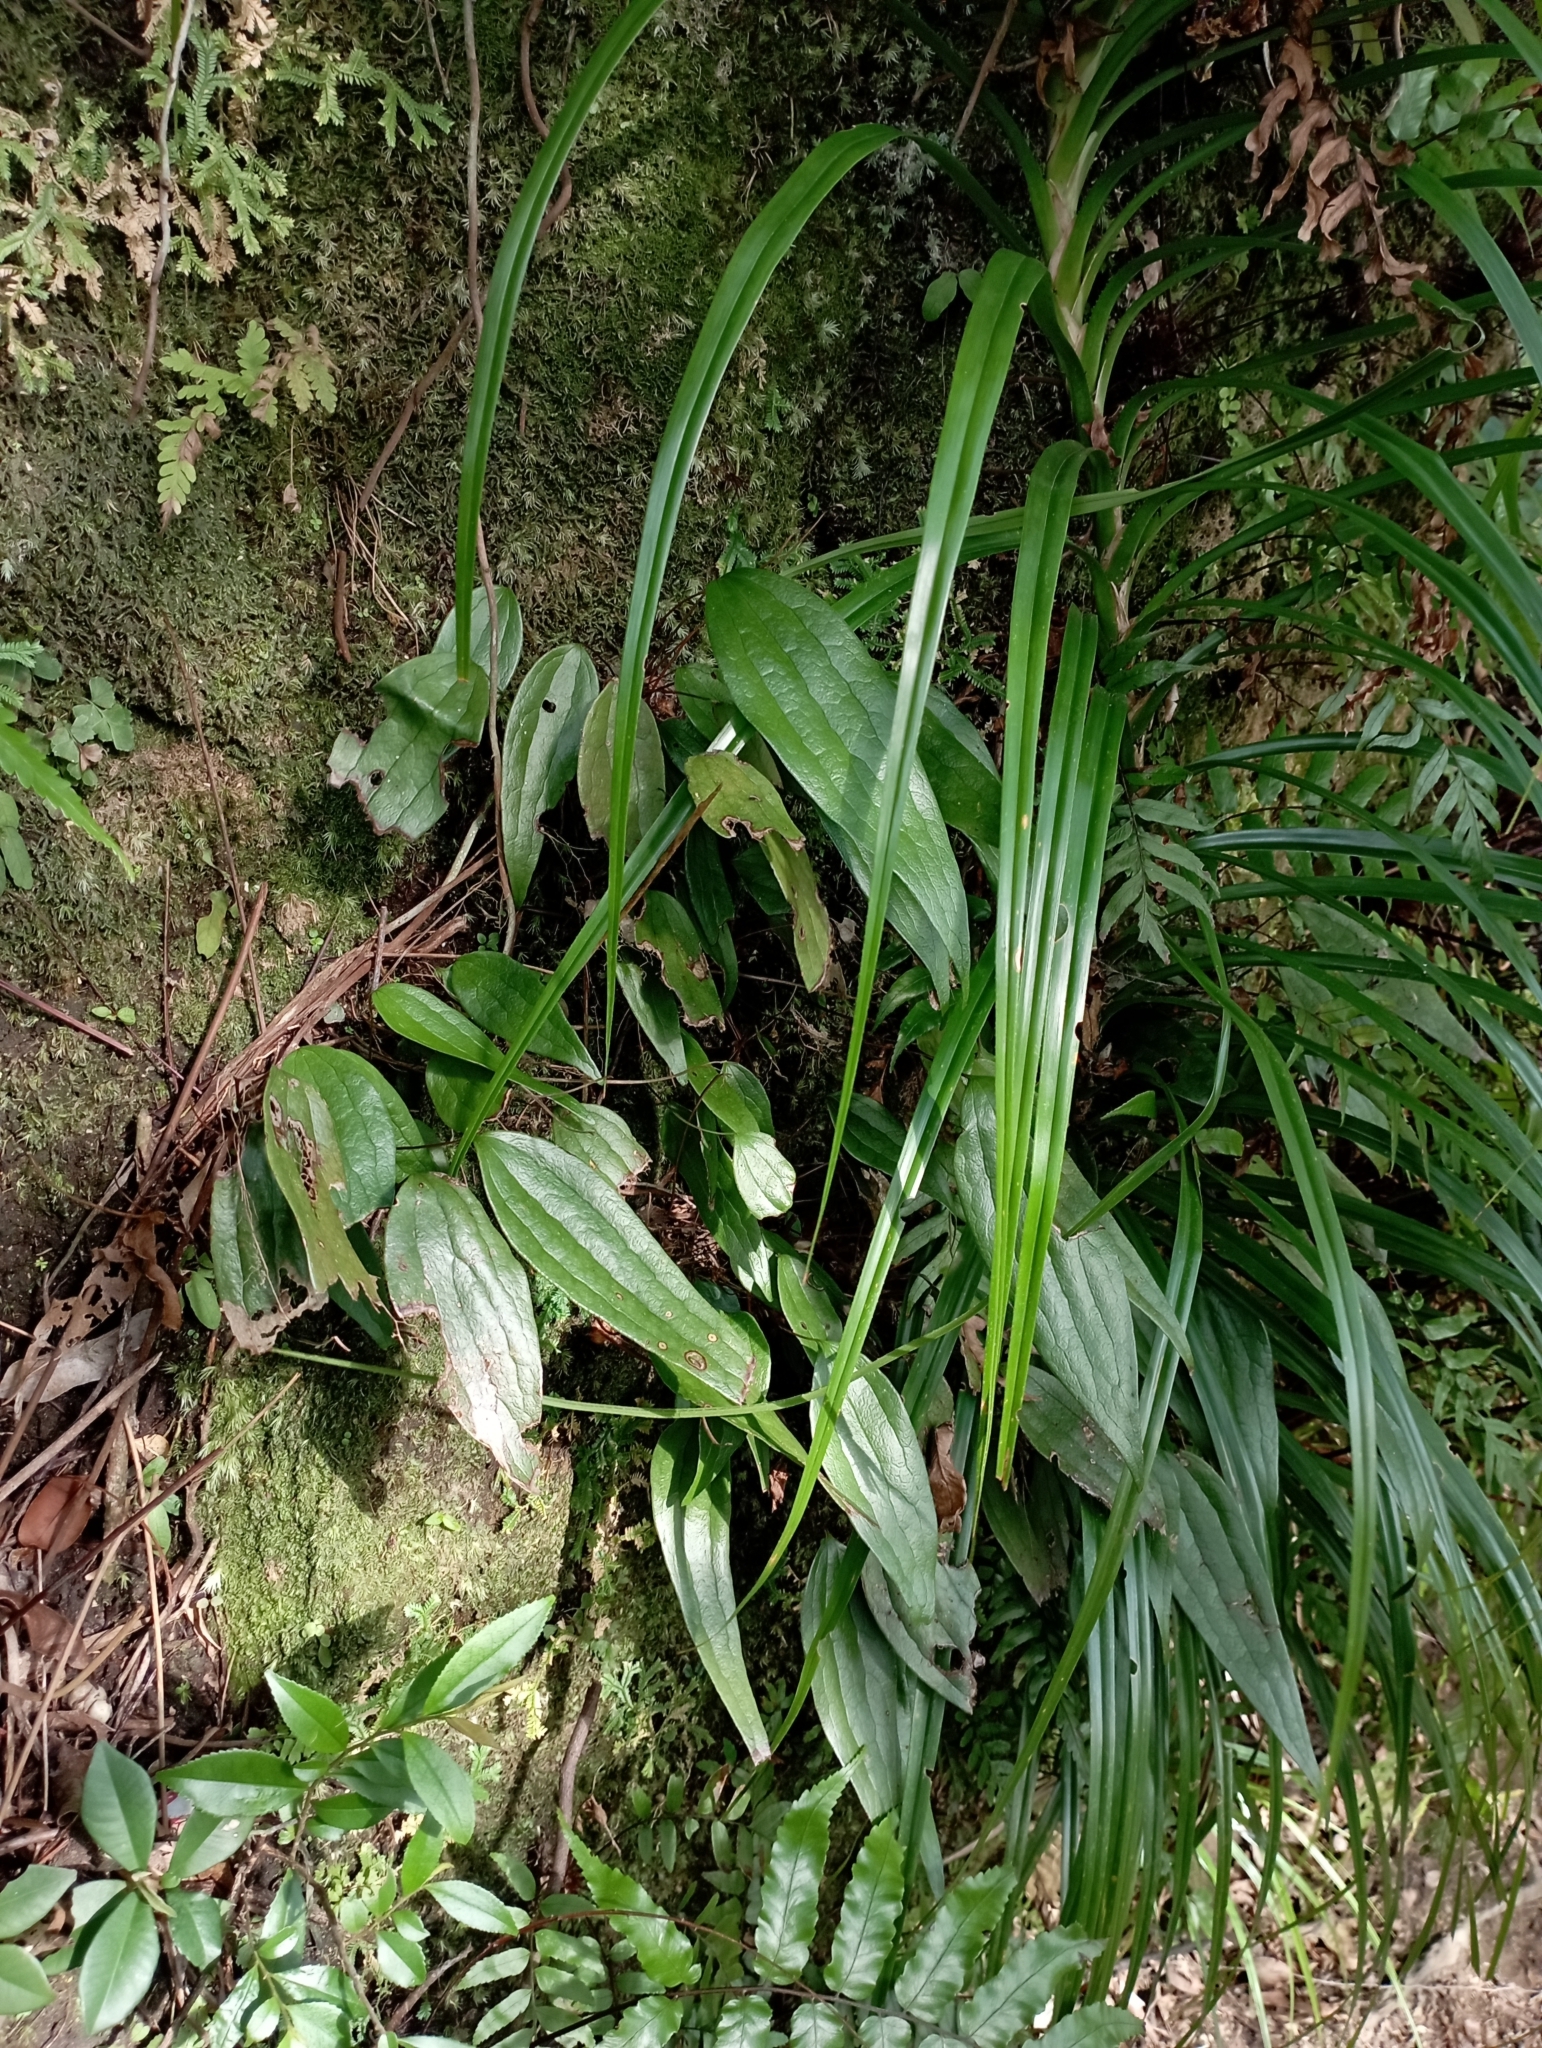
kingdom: Plantae
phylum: Tracheophyta
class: Polypodiopsida
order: Gleicheniales
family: Dipteridaceae
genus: Cheiropleuria
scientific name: Cheiropleuria integrifolia
